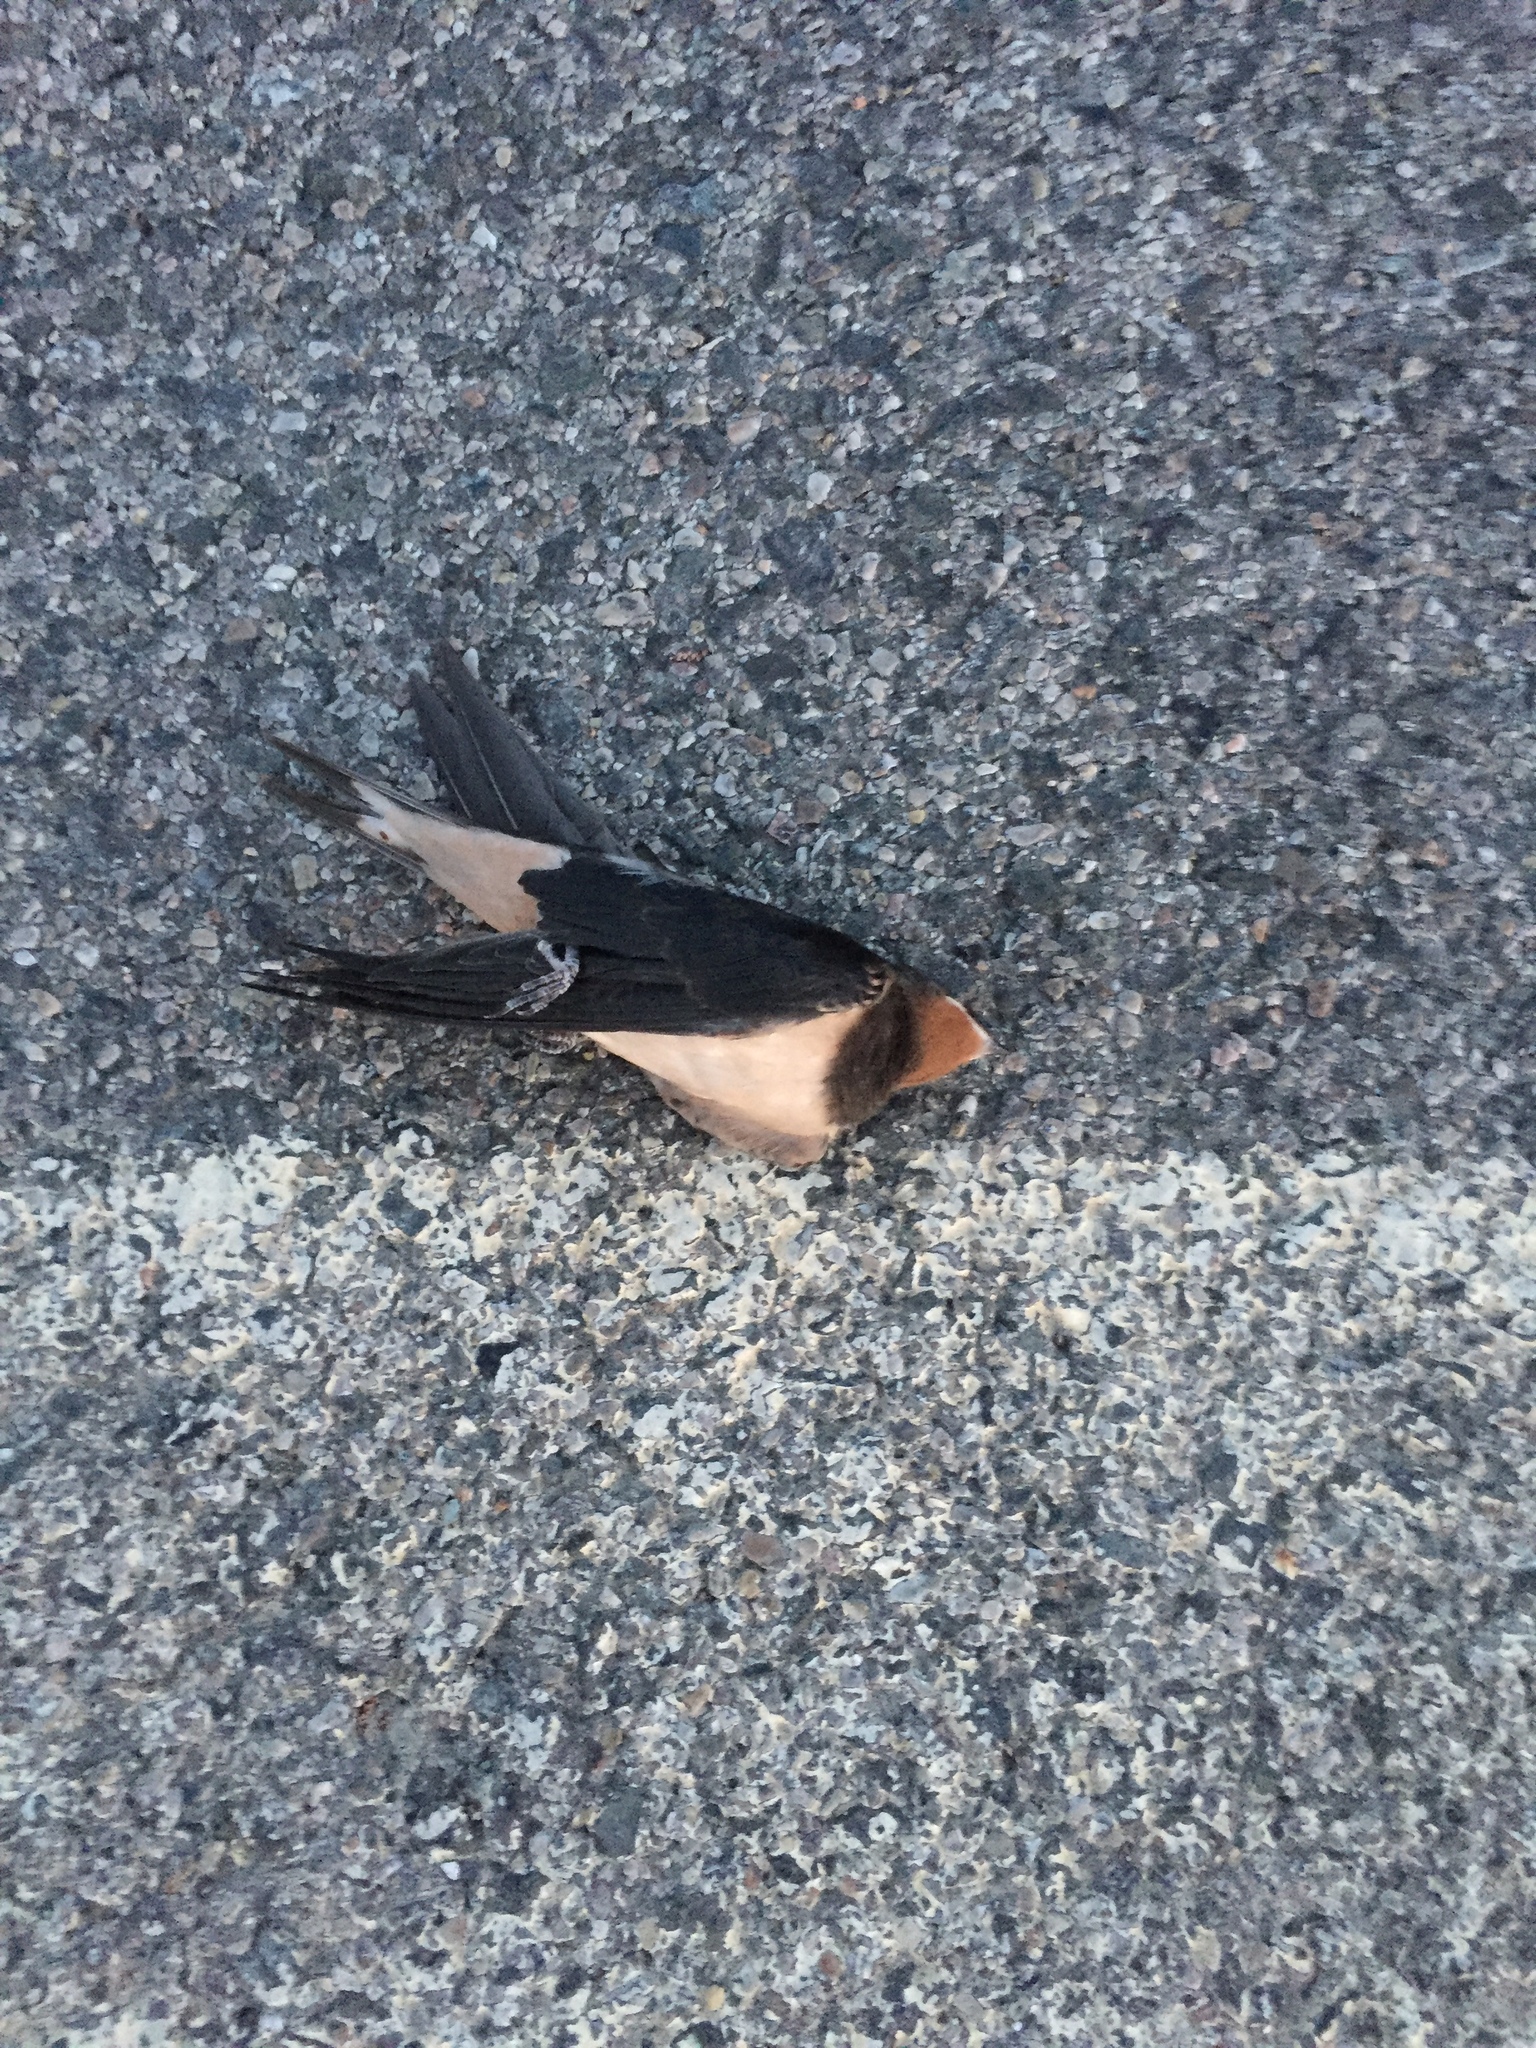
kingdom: Animalia
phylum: Chordata
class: Aves
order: Passeriformes
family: Hirundinidae
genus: Hirundo
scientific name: Hirundo rustica
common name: Barn swallow
